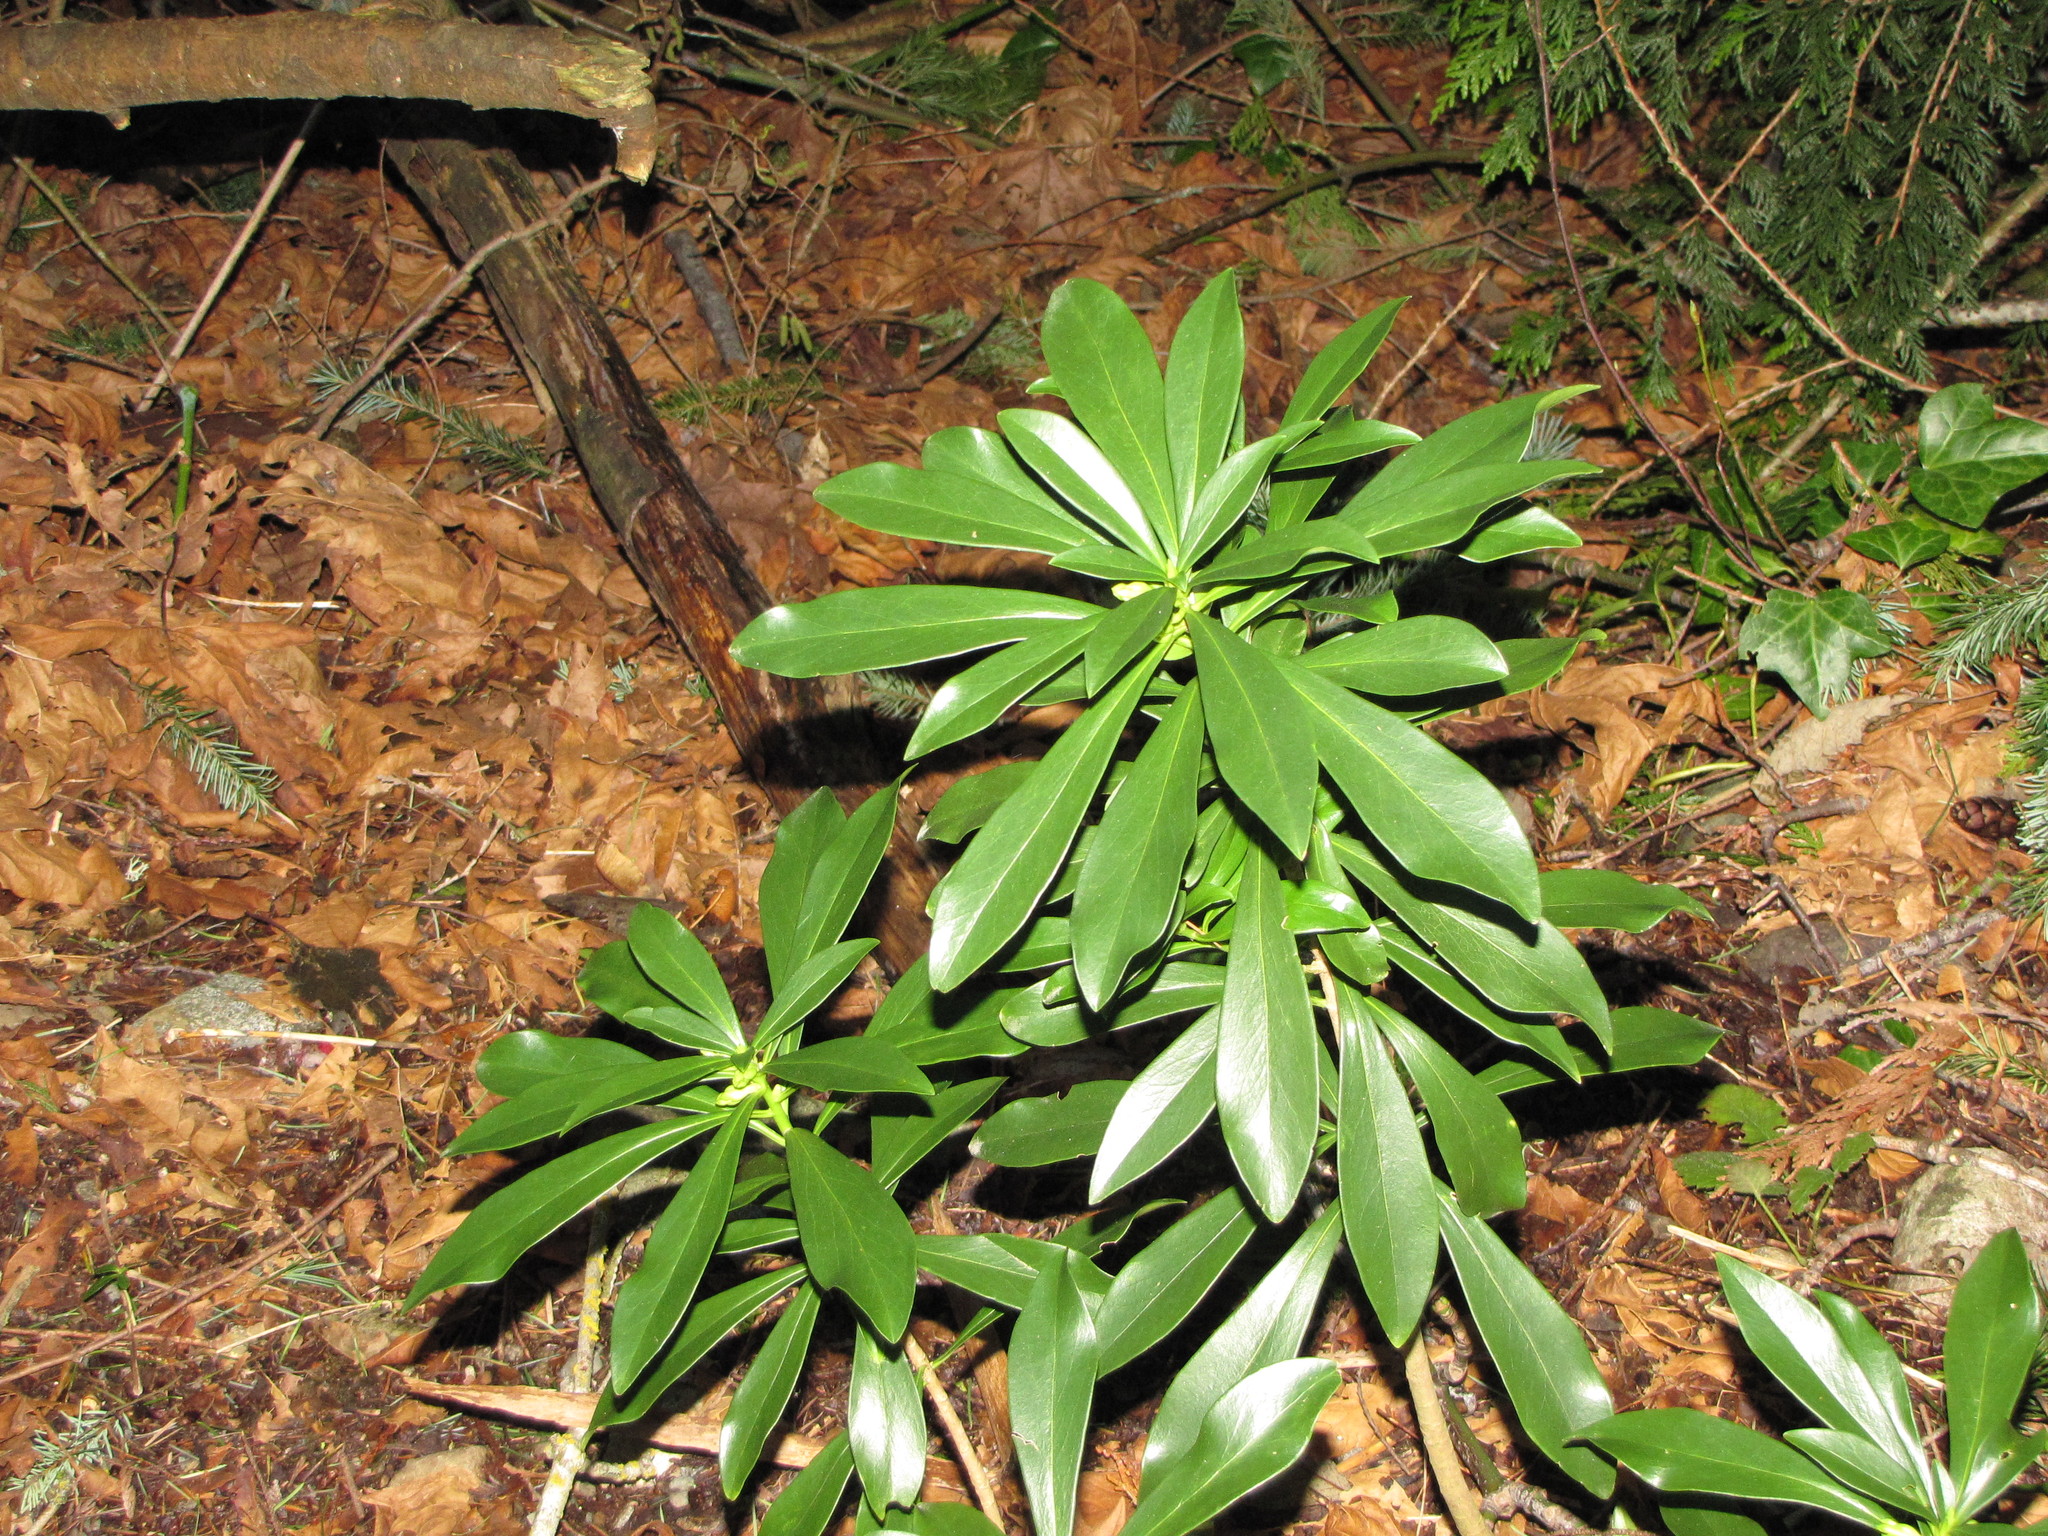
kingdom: Plantae
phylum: Tracheophyta
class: Magnoliopsida
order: Malvales
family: Thymelaeaceae
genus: Daphne
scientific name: Daphne laureola
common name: Spurge-laurel
